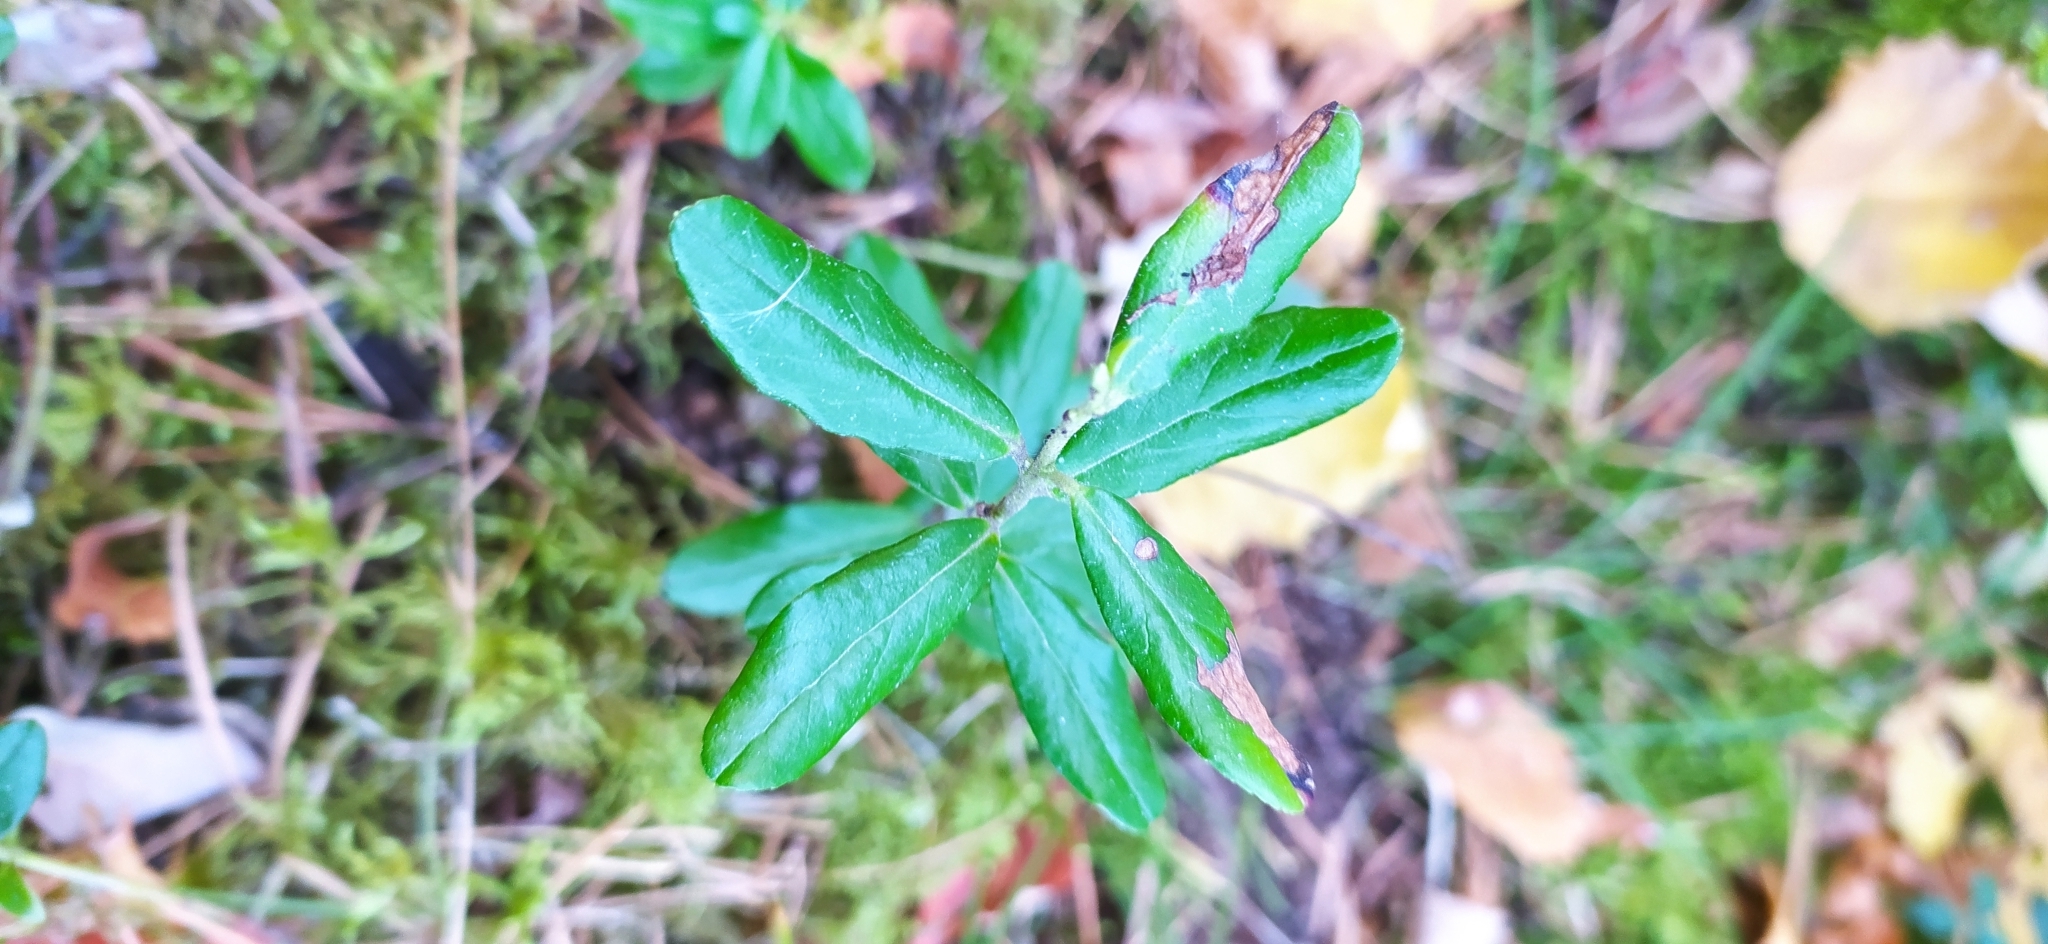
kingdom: Plantae
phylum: Tracheophyta
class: Magnoliopsida
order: Ericales
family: Ericaceae
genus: Vaccinium
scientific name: Vaccinium vitis-idaea
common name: Cowberry
